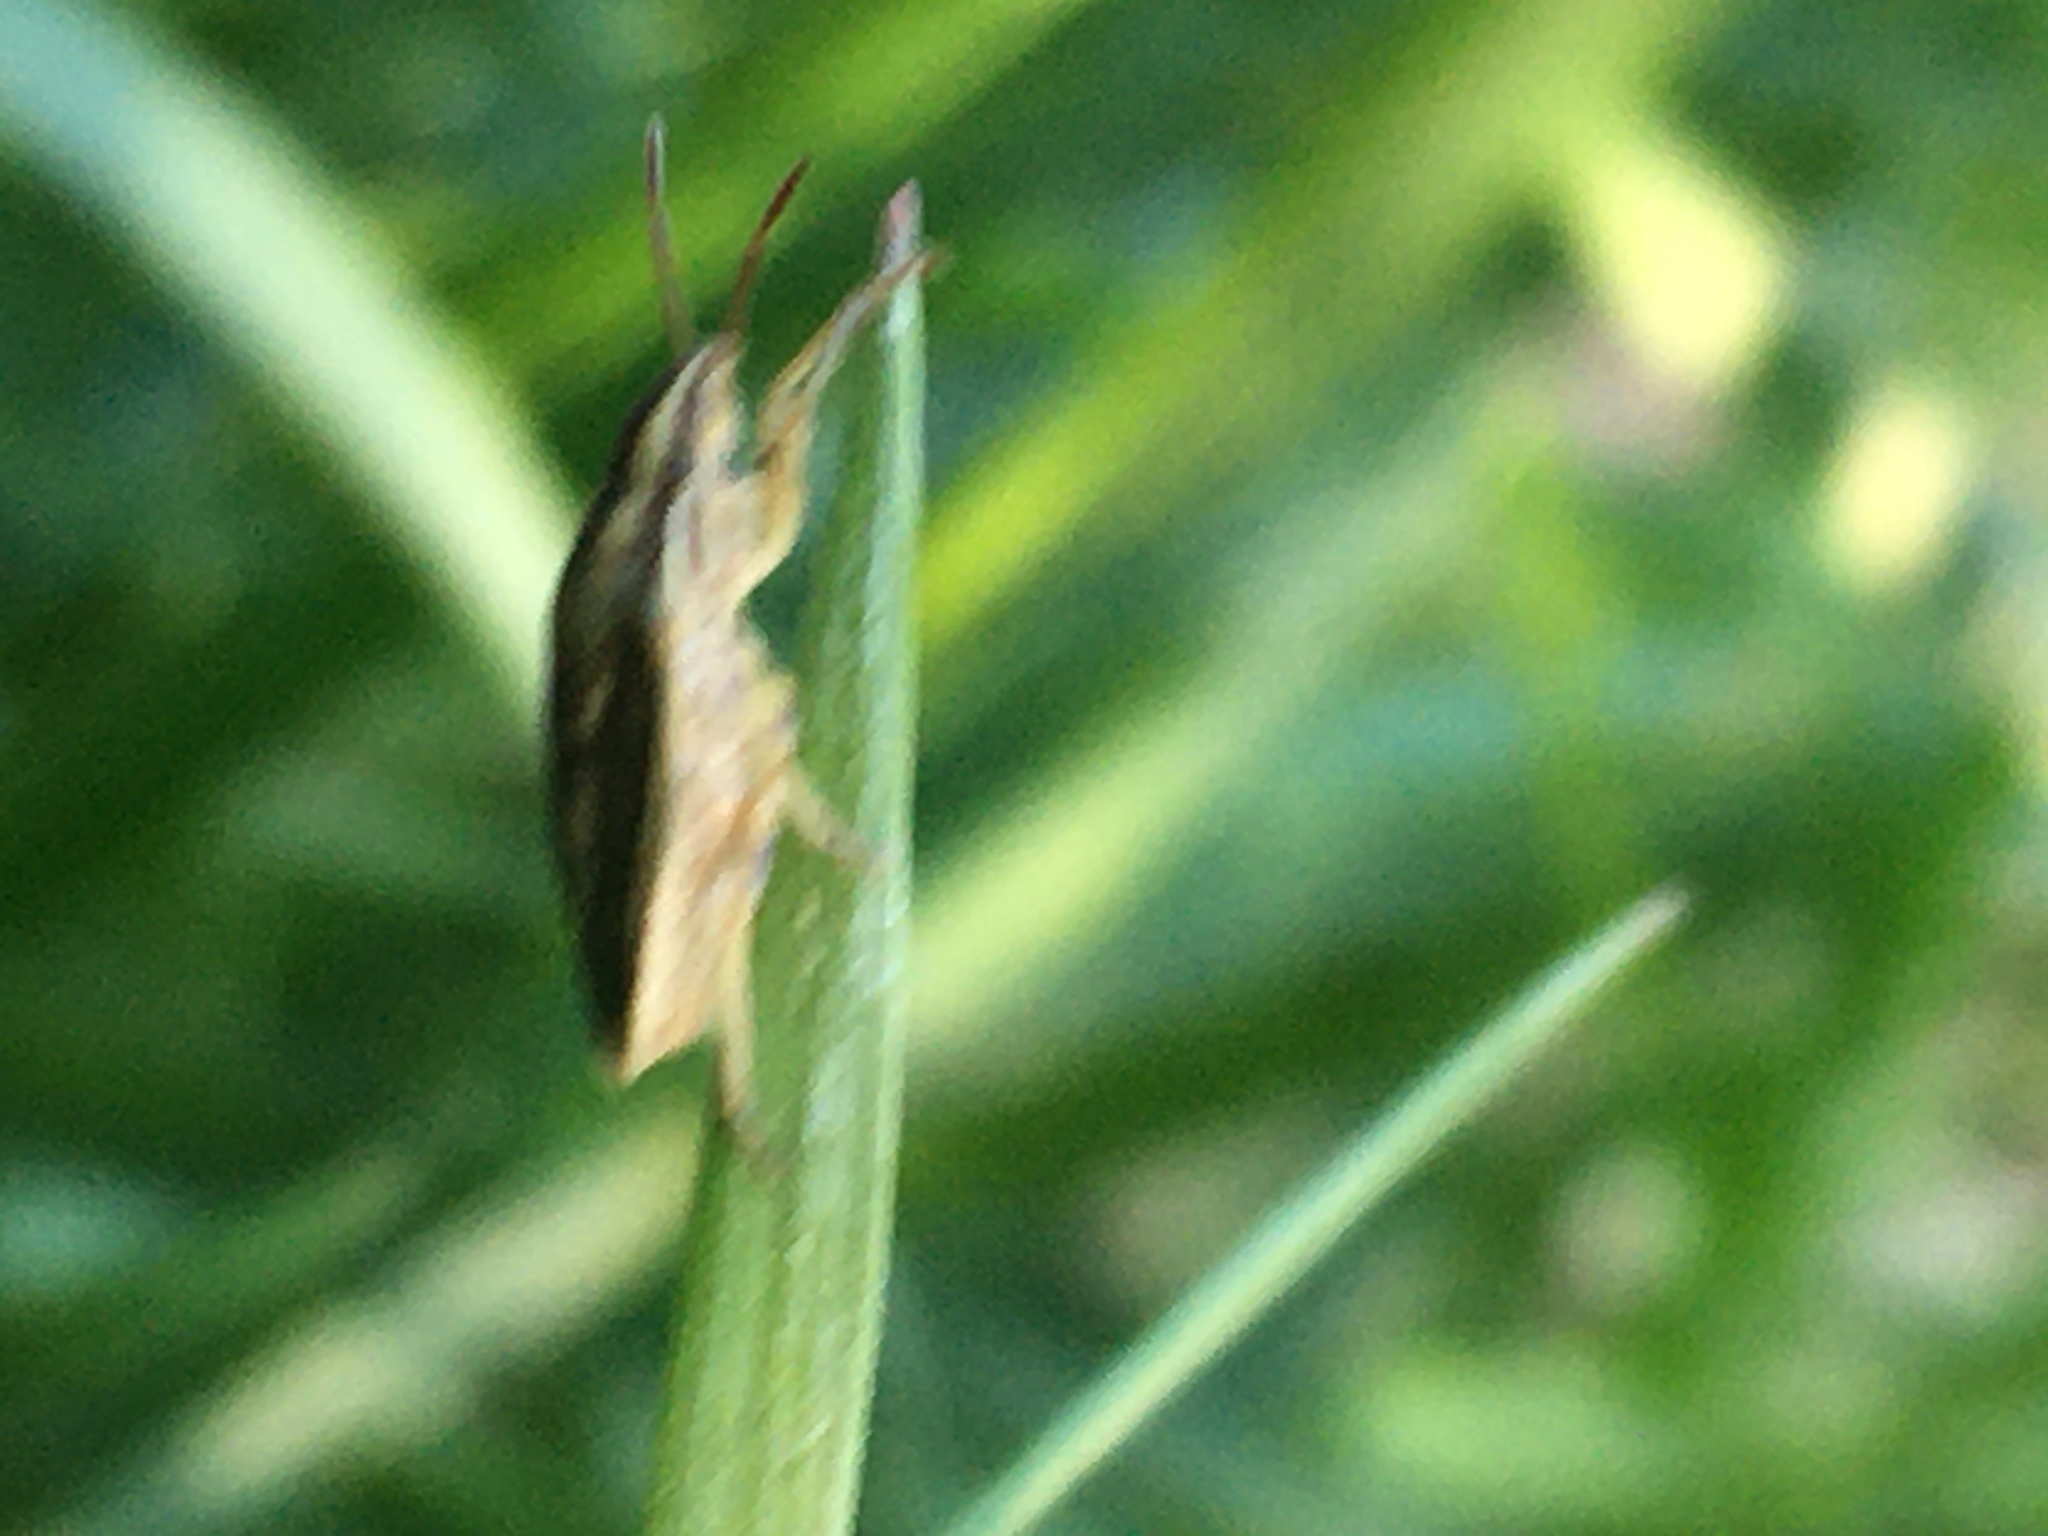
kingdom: Animalia
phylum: Arthropoda
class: Insecta
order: Hemiptera
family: Pentatomidae
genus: Aelia
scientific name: Aelia acuminata
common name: Bishop's mitre
